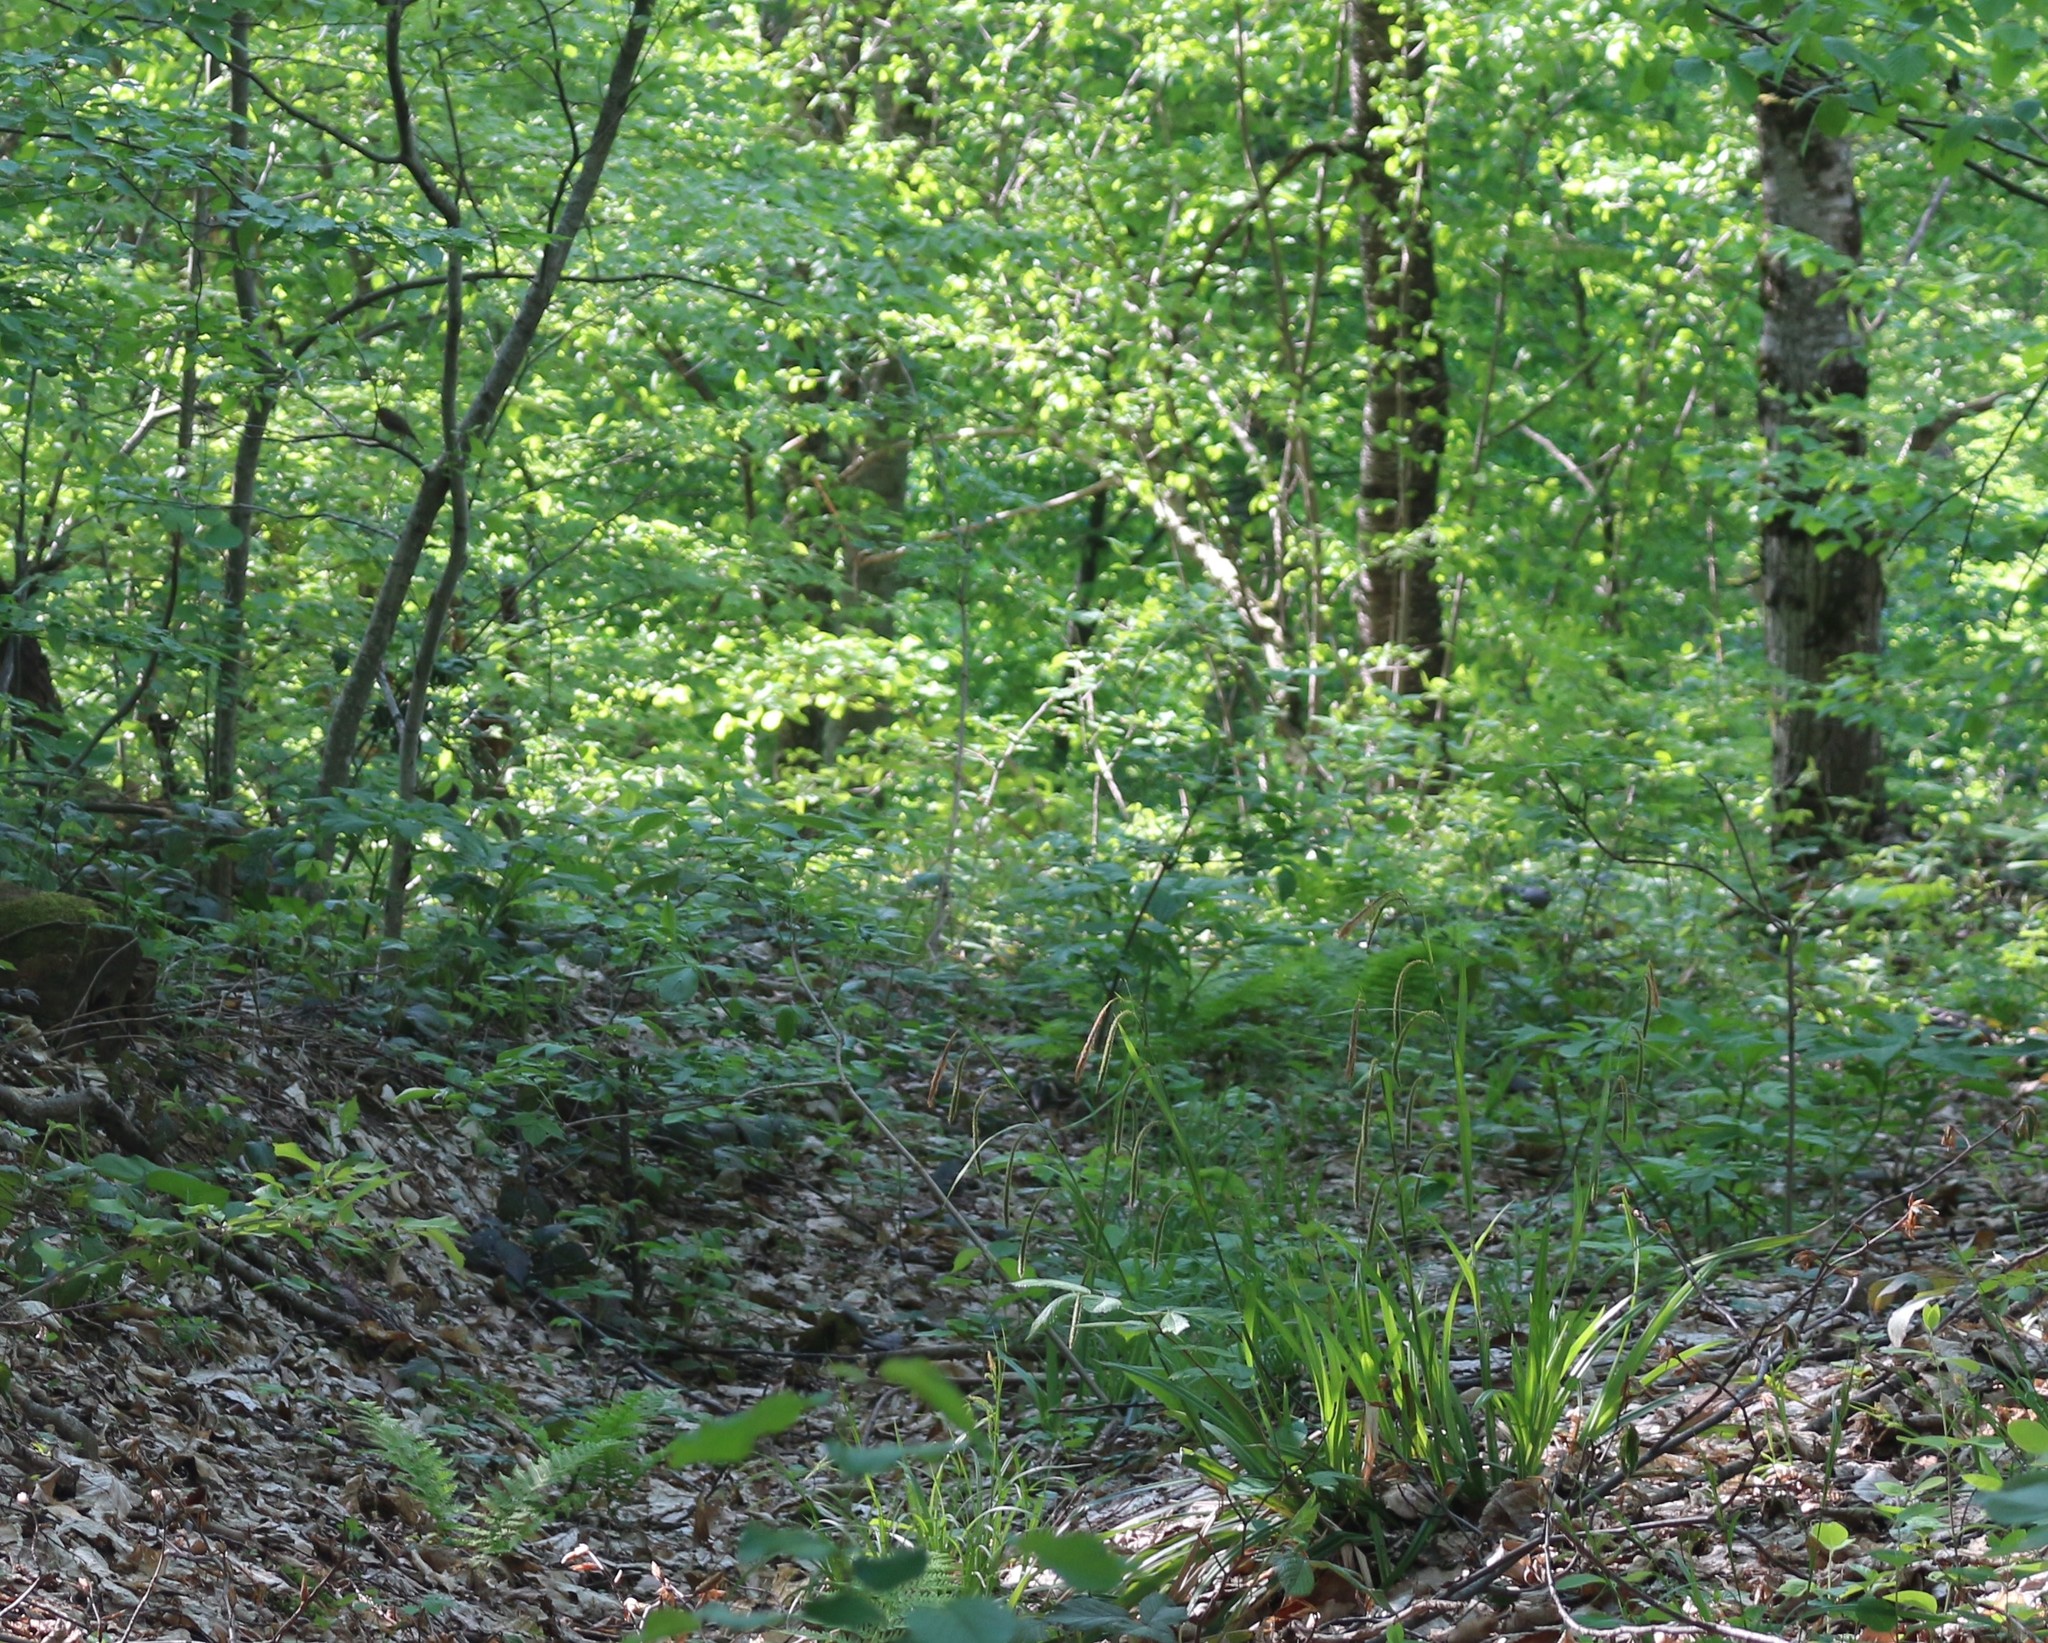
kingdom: Plantae
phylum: Tracheophyta
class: Liliopsida
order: Poales
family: Cyperaceae
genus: Carex
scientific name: Carex pendula
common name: Pendulous sedge
